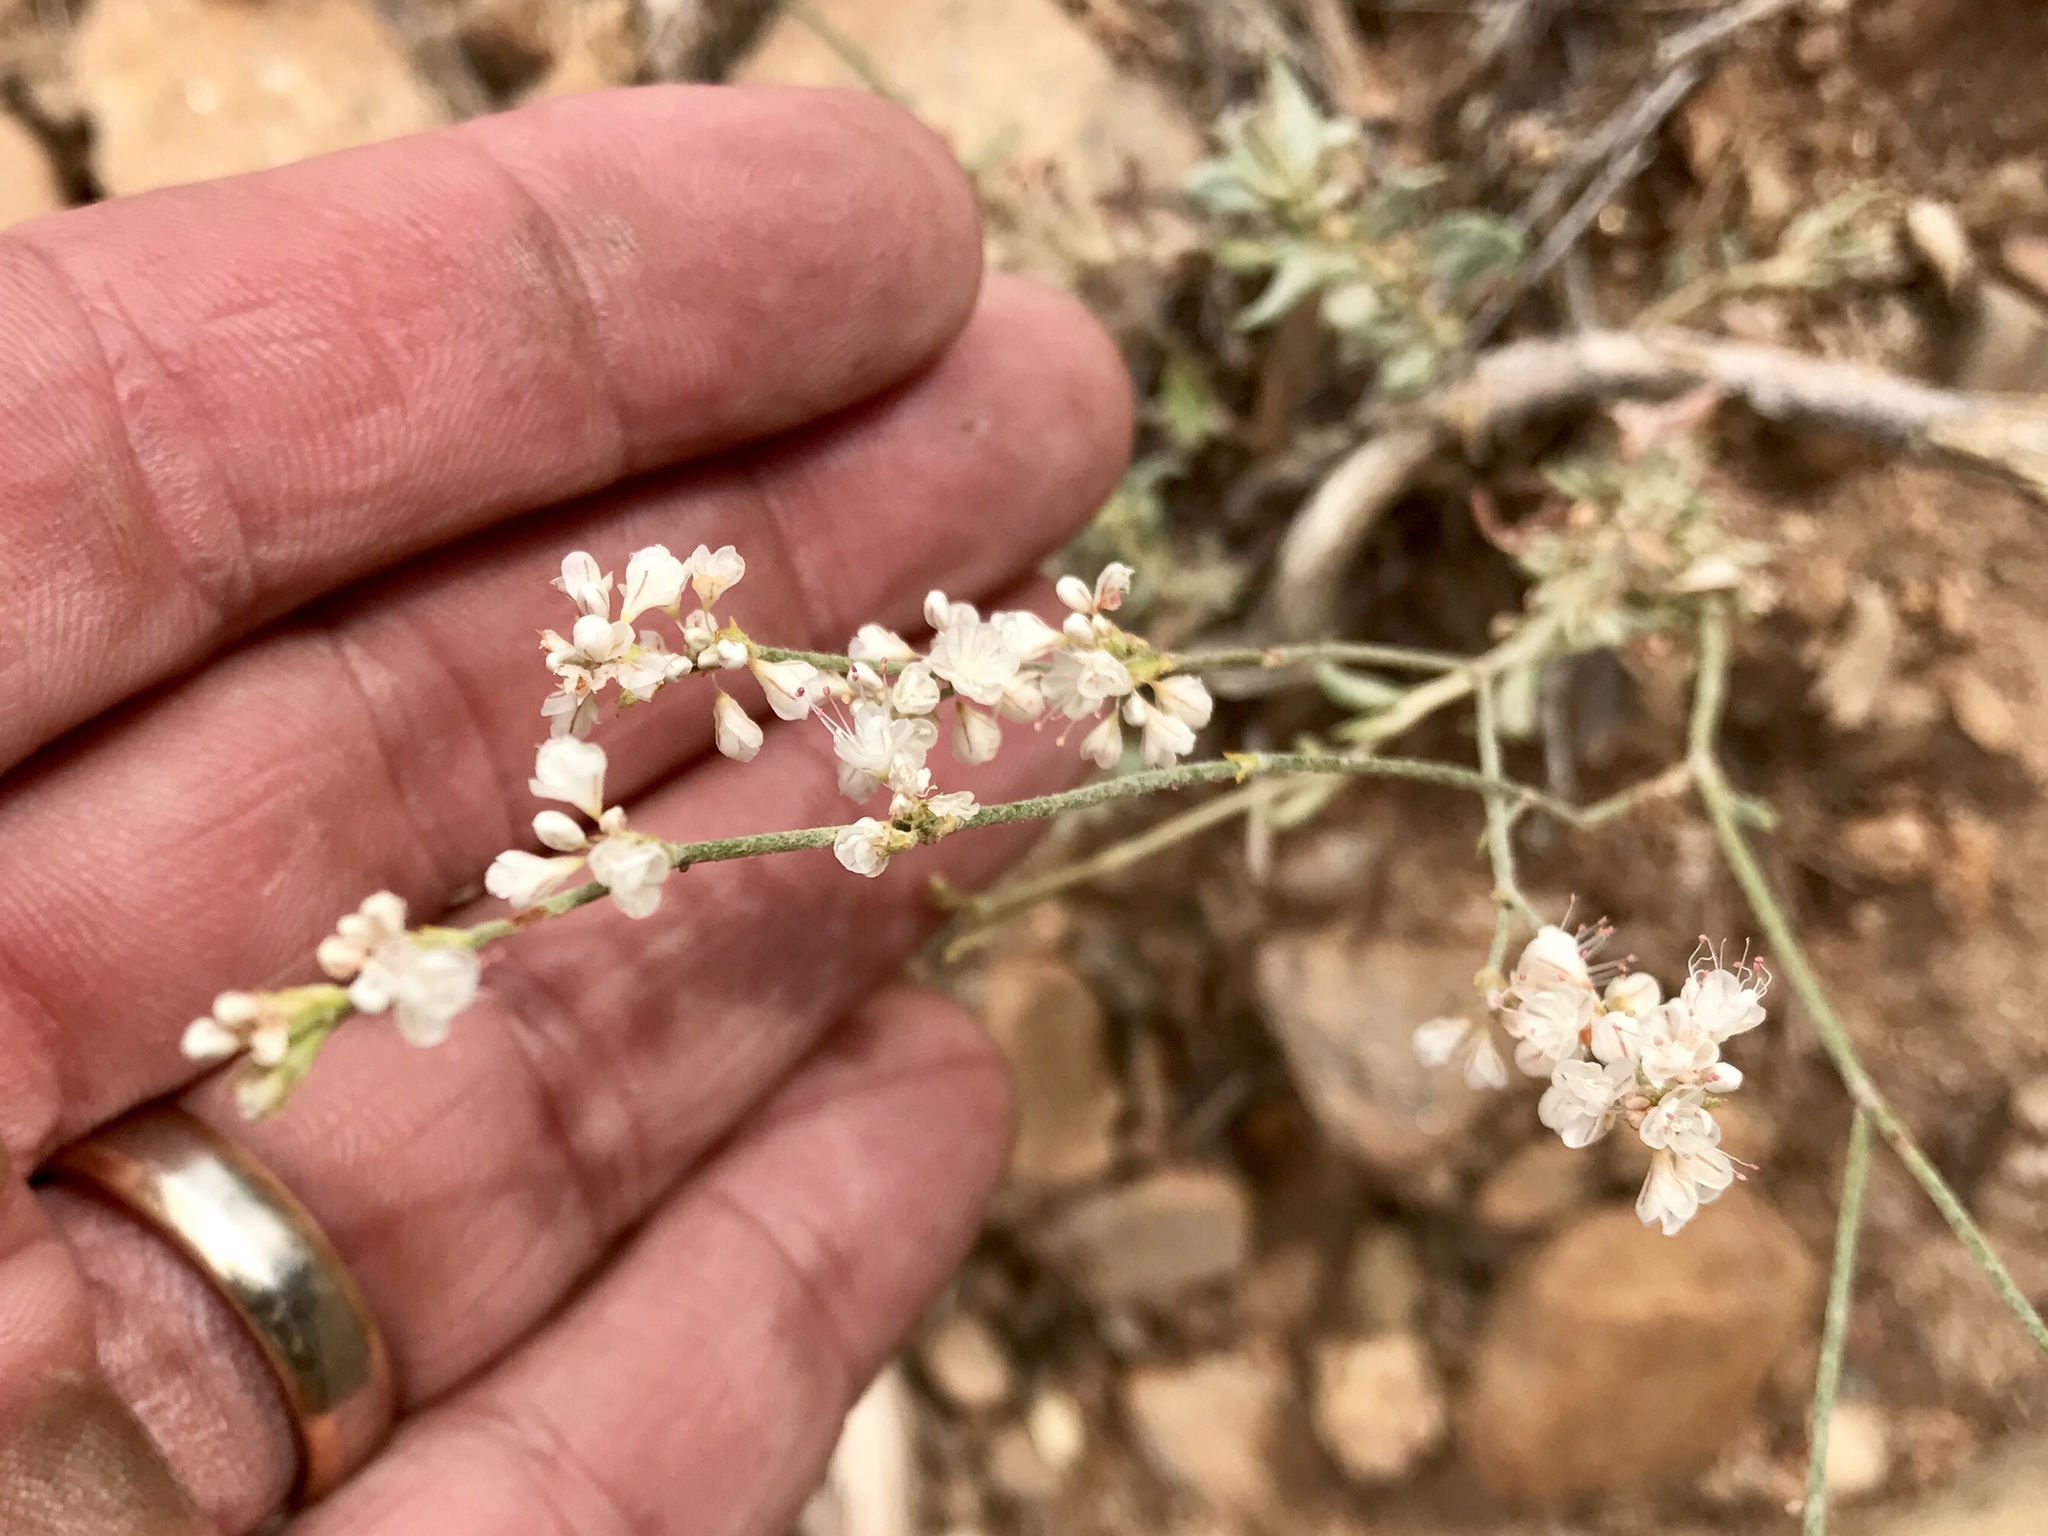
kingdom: Plantae
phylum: Tracheophyta
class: Magnoliopsida
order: Caryophyllales
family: Polygonaceae
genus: Eriogonum
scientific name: Eriogonum wrightii
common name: Bastard-sage
